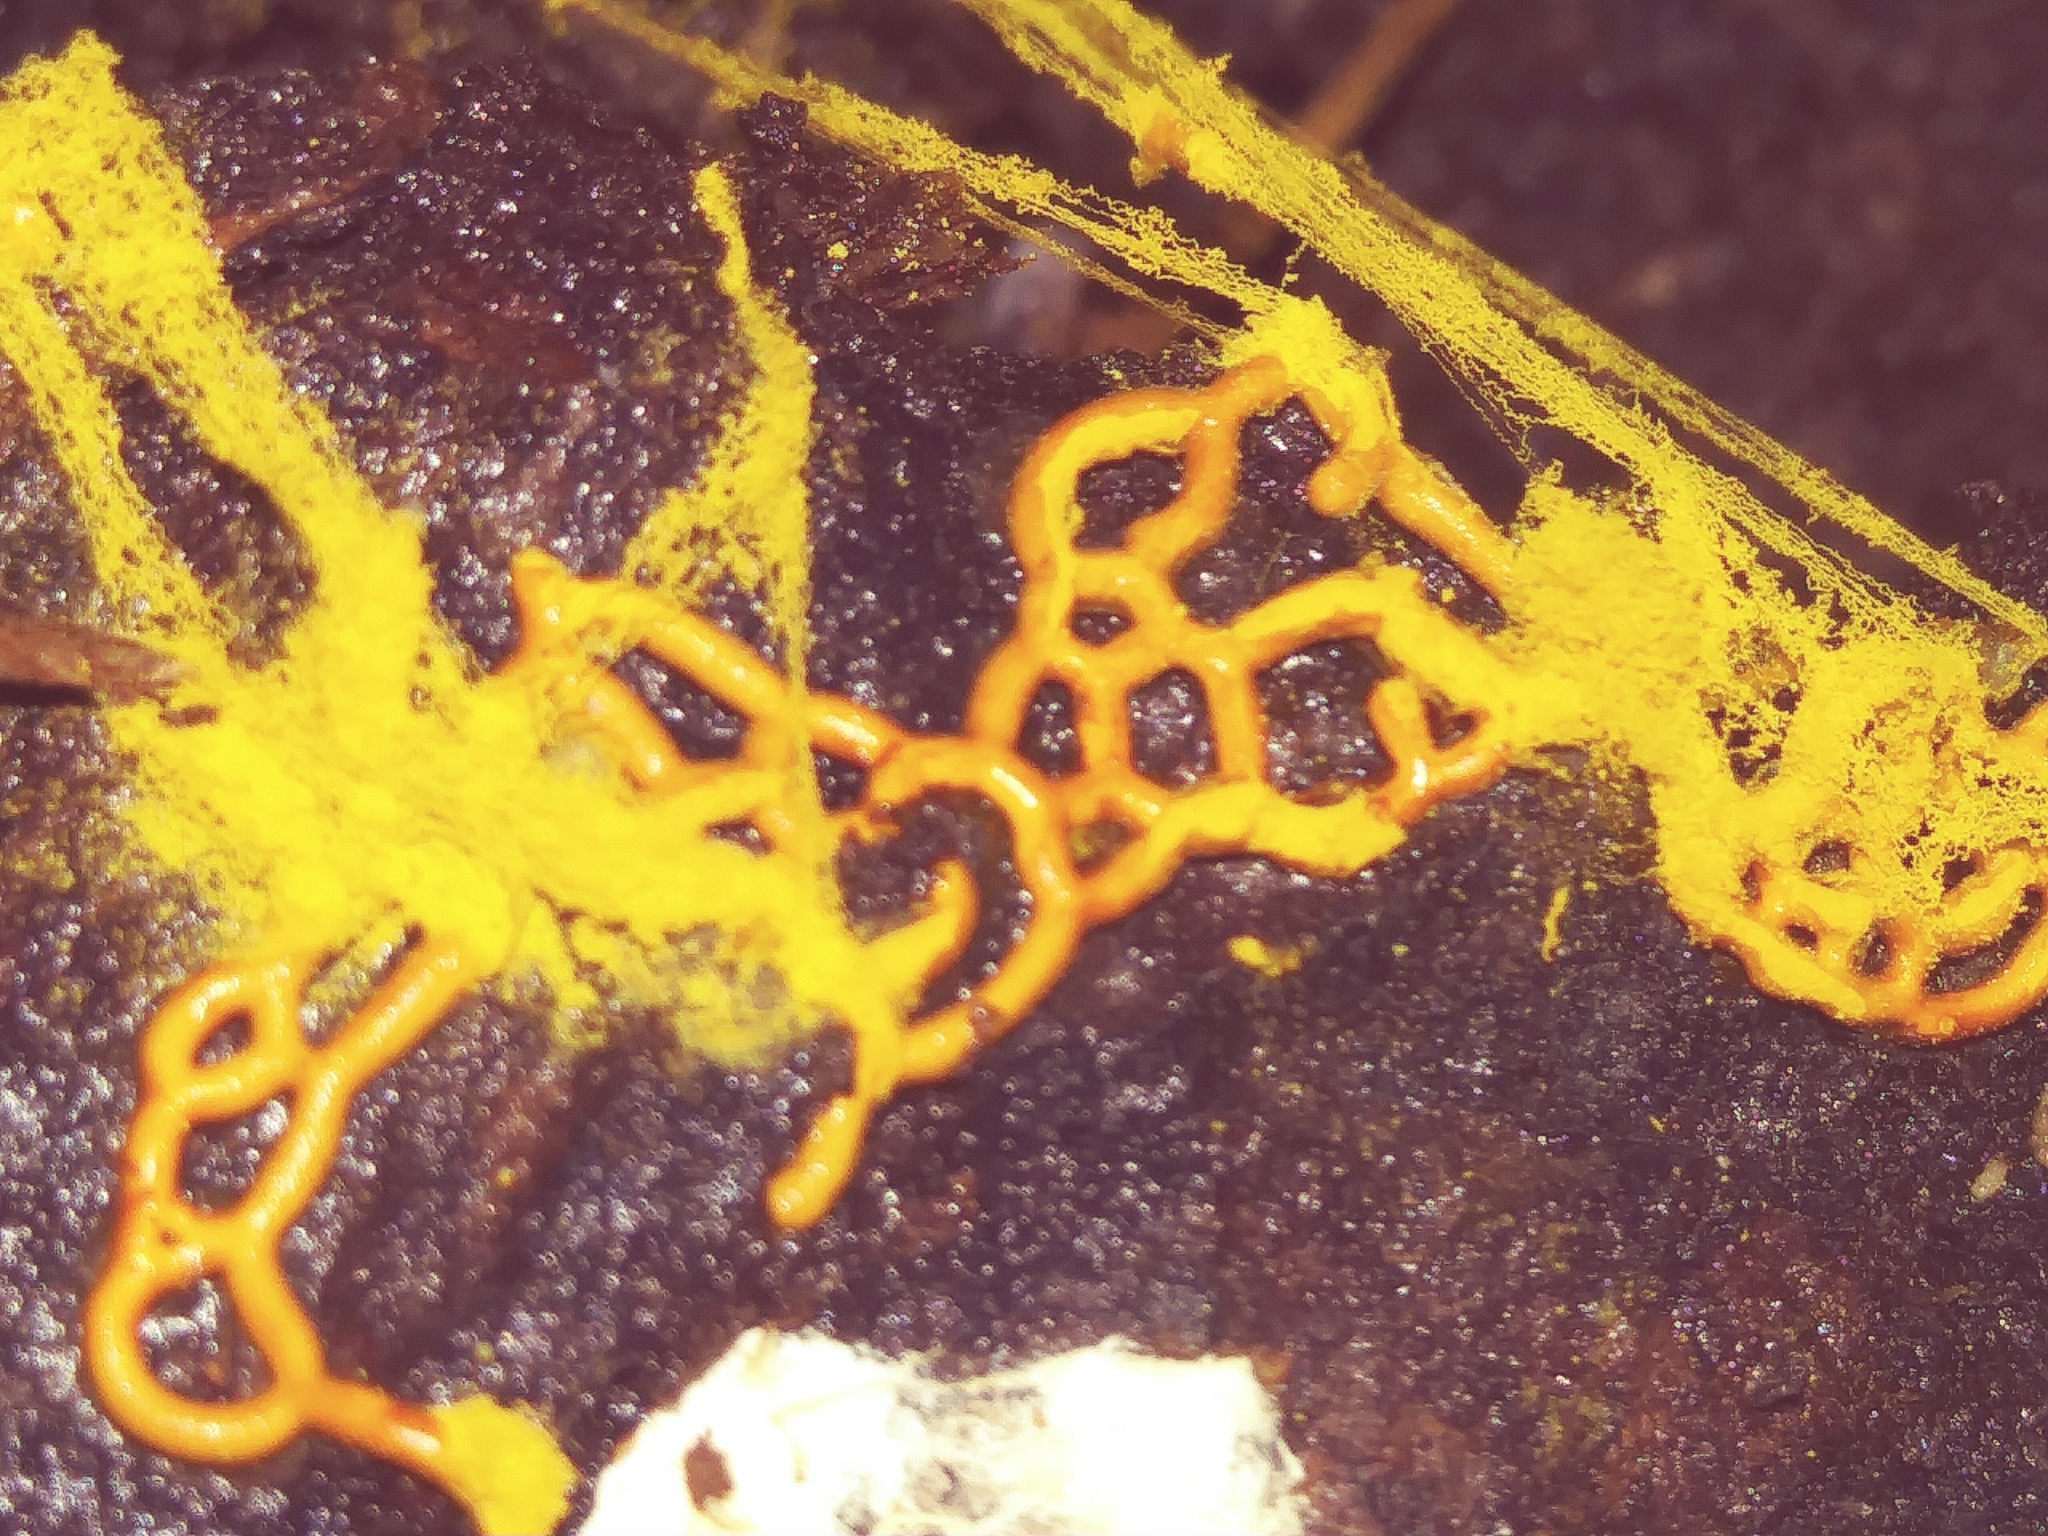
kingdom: Protozoa
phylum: Mycetozoa
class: Myxomycetes
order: Trichiales
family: Arcyriaceae
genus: Hemitrichia
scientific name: Hemitrichia serpula
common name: Pretzel slime mold
